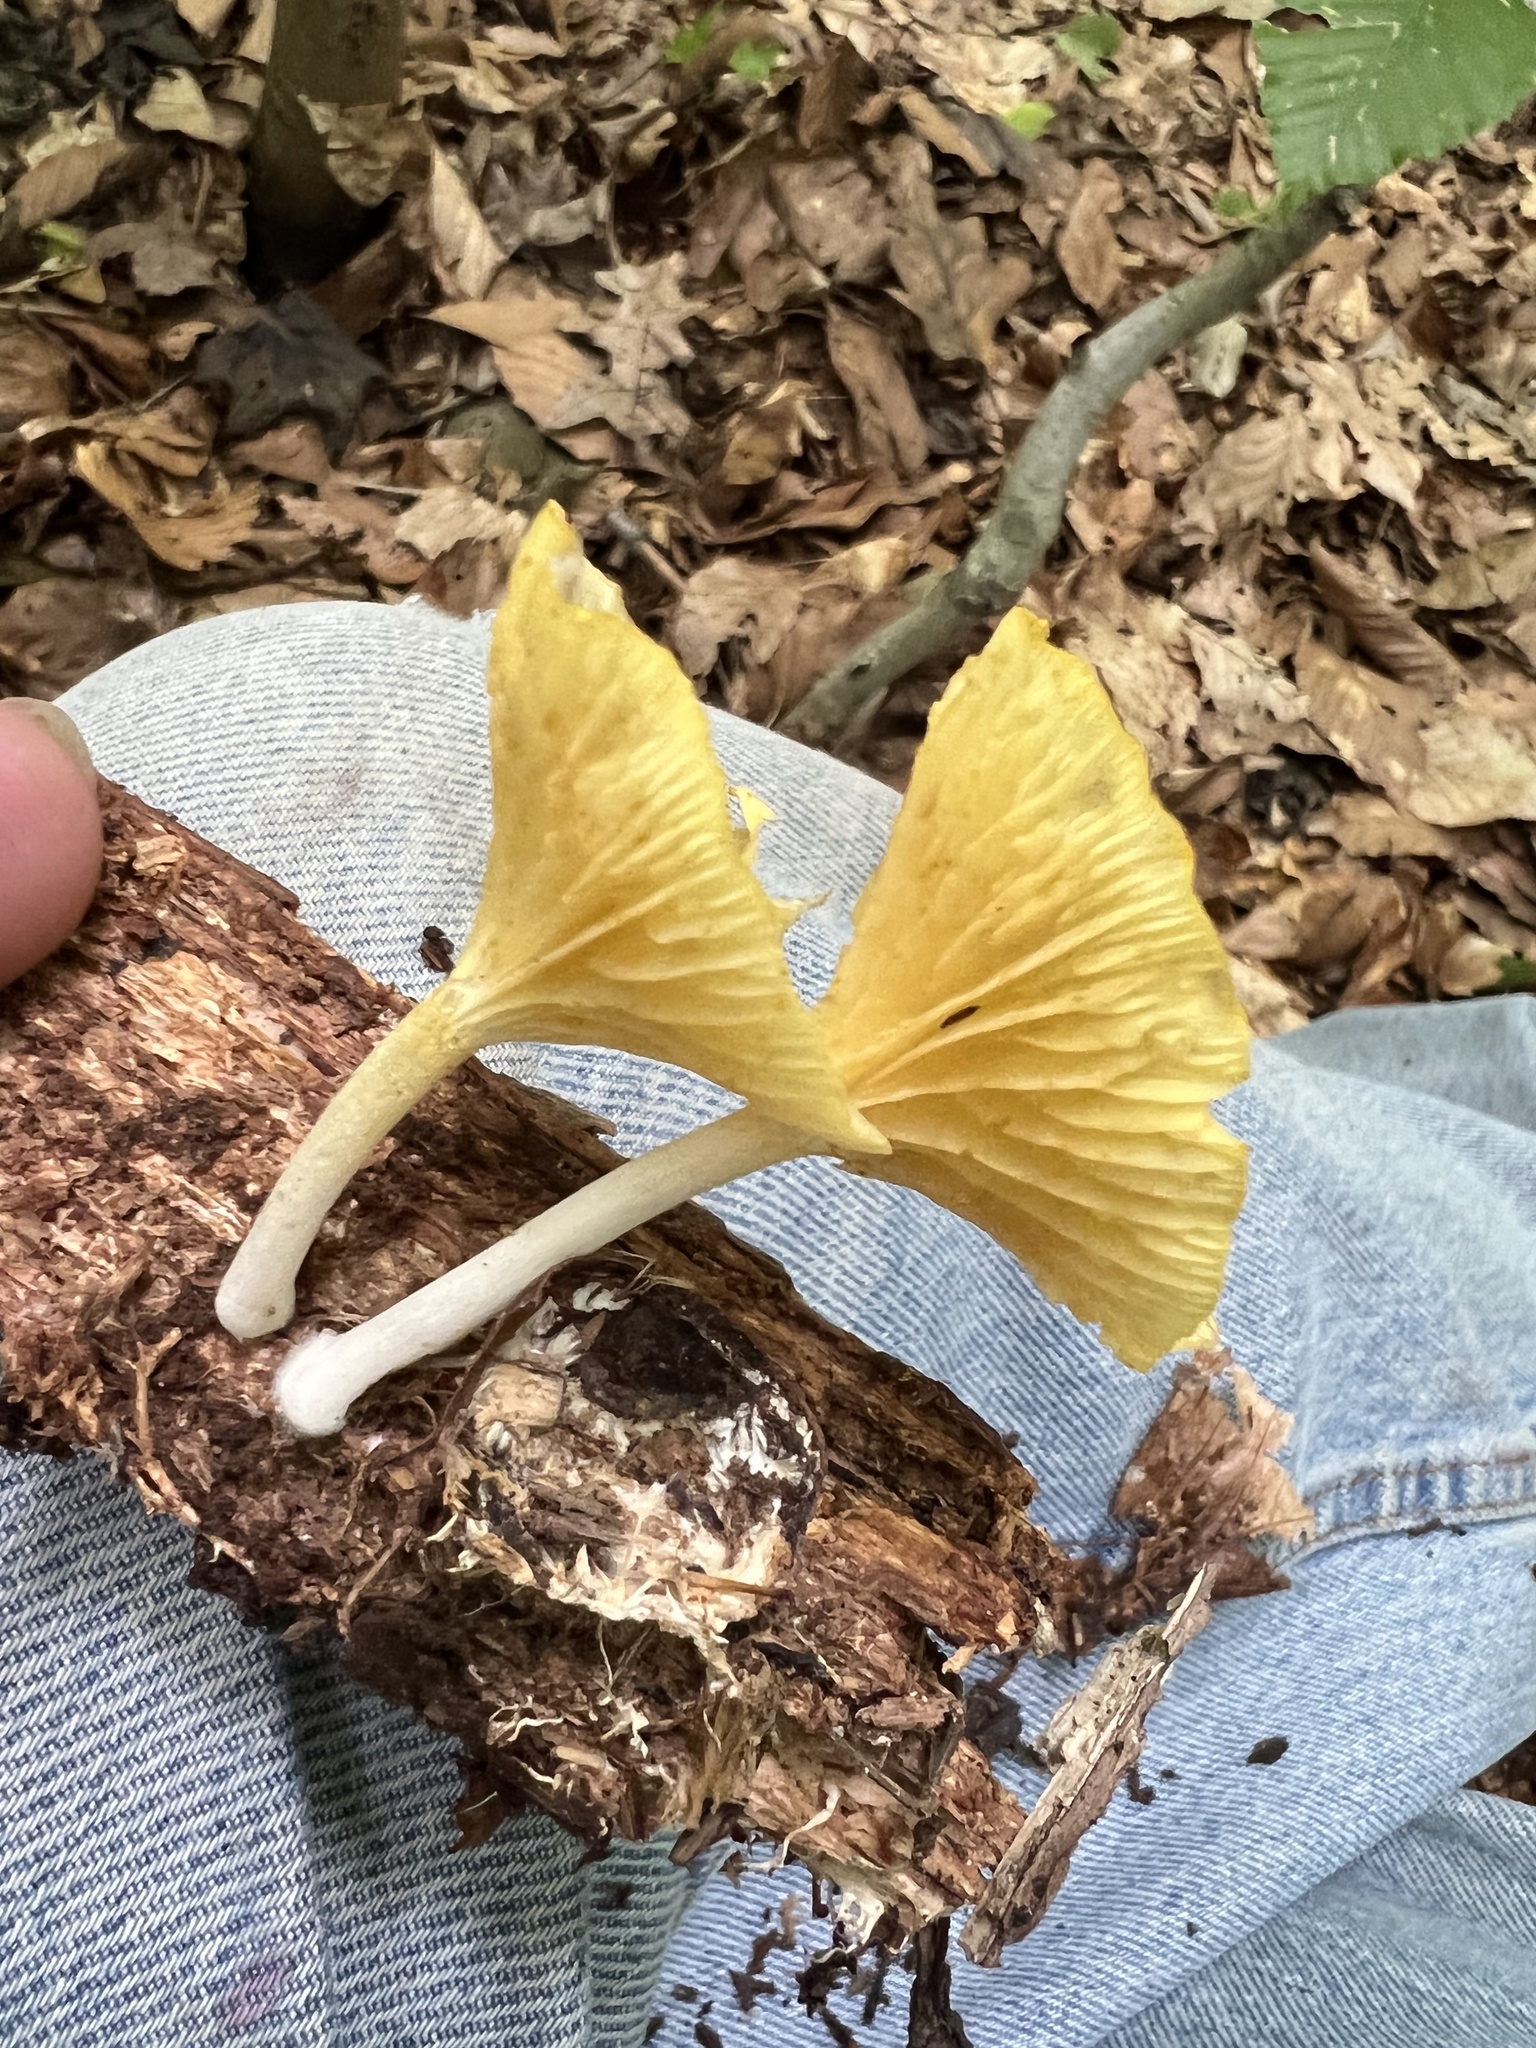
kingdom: Fungi
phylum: Basidiomycota
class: Agaricomycetes
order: Agaricales
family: Marasmiaceae
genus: Gerronema
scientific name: Gerronema strombodes
